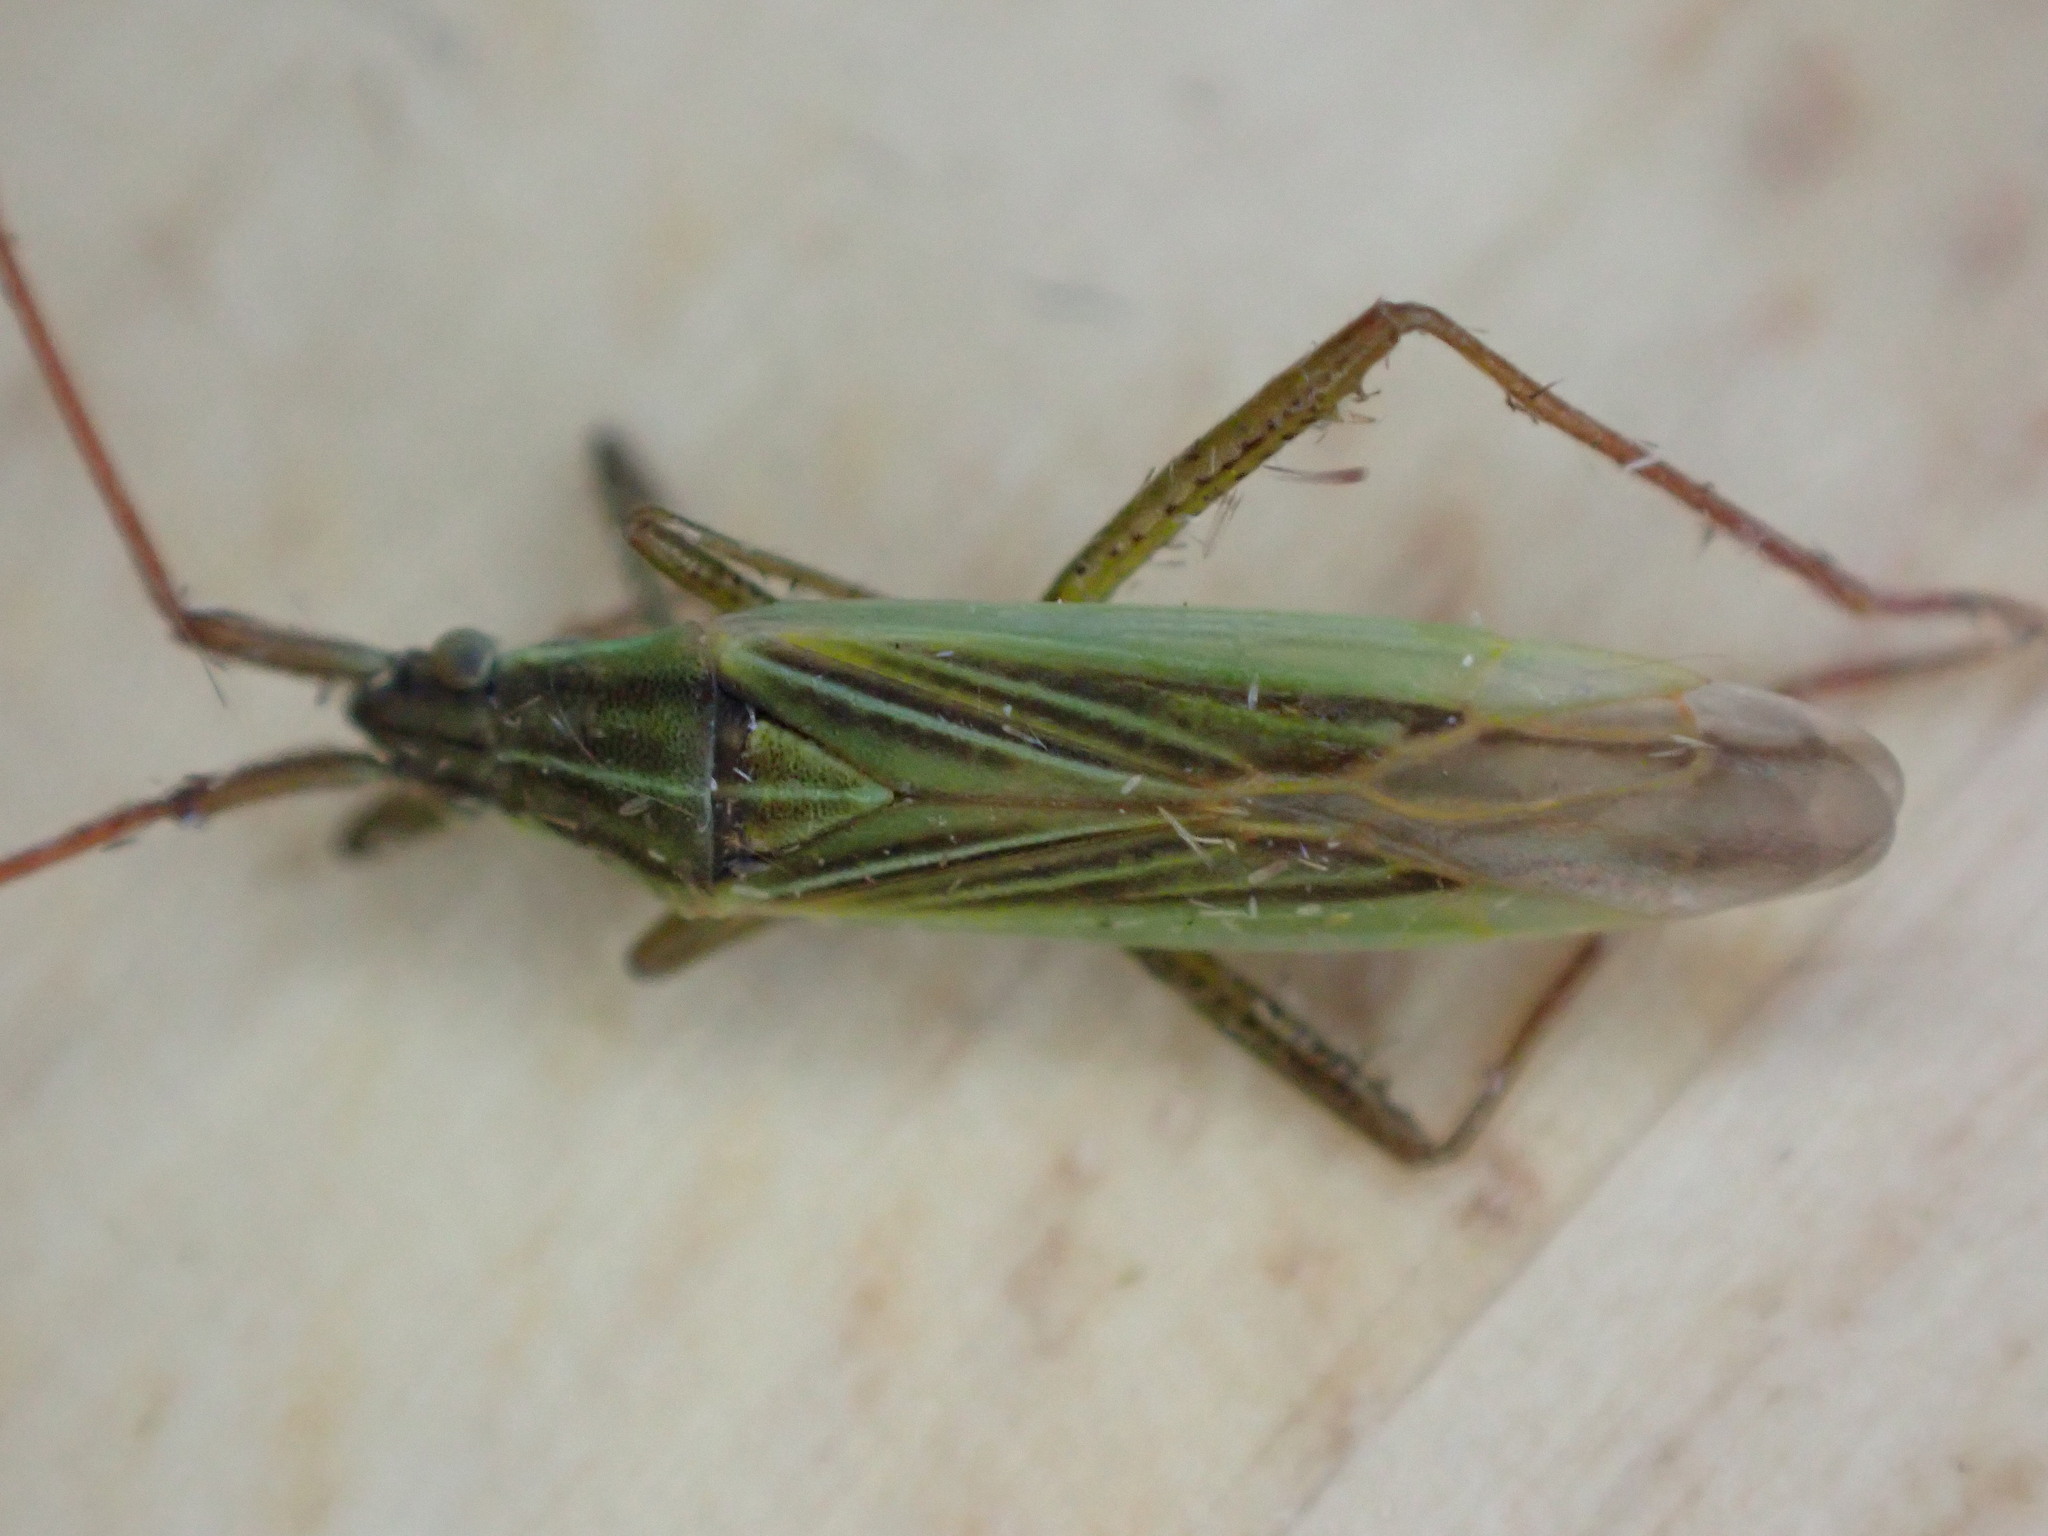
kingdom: Animalia
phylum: Arthropoda
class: Insecta
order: Hemiptera
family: Miridae
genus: Stenodema
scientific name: Stenodema calcarata
